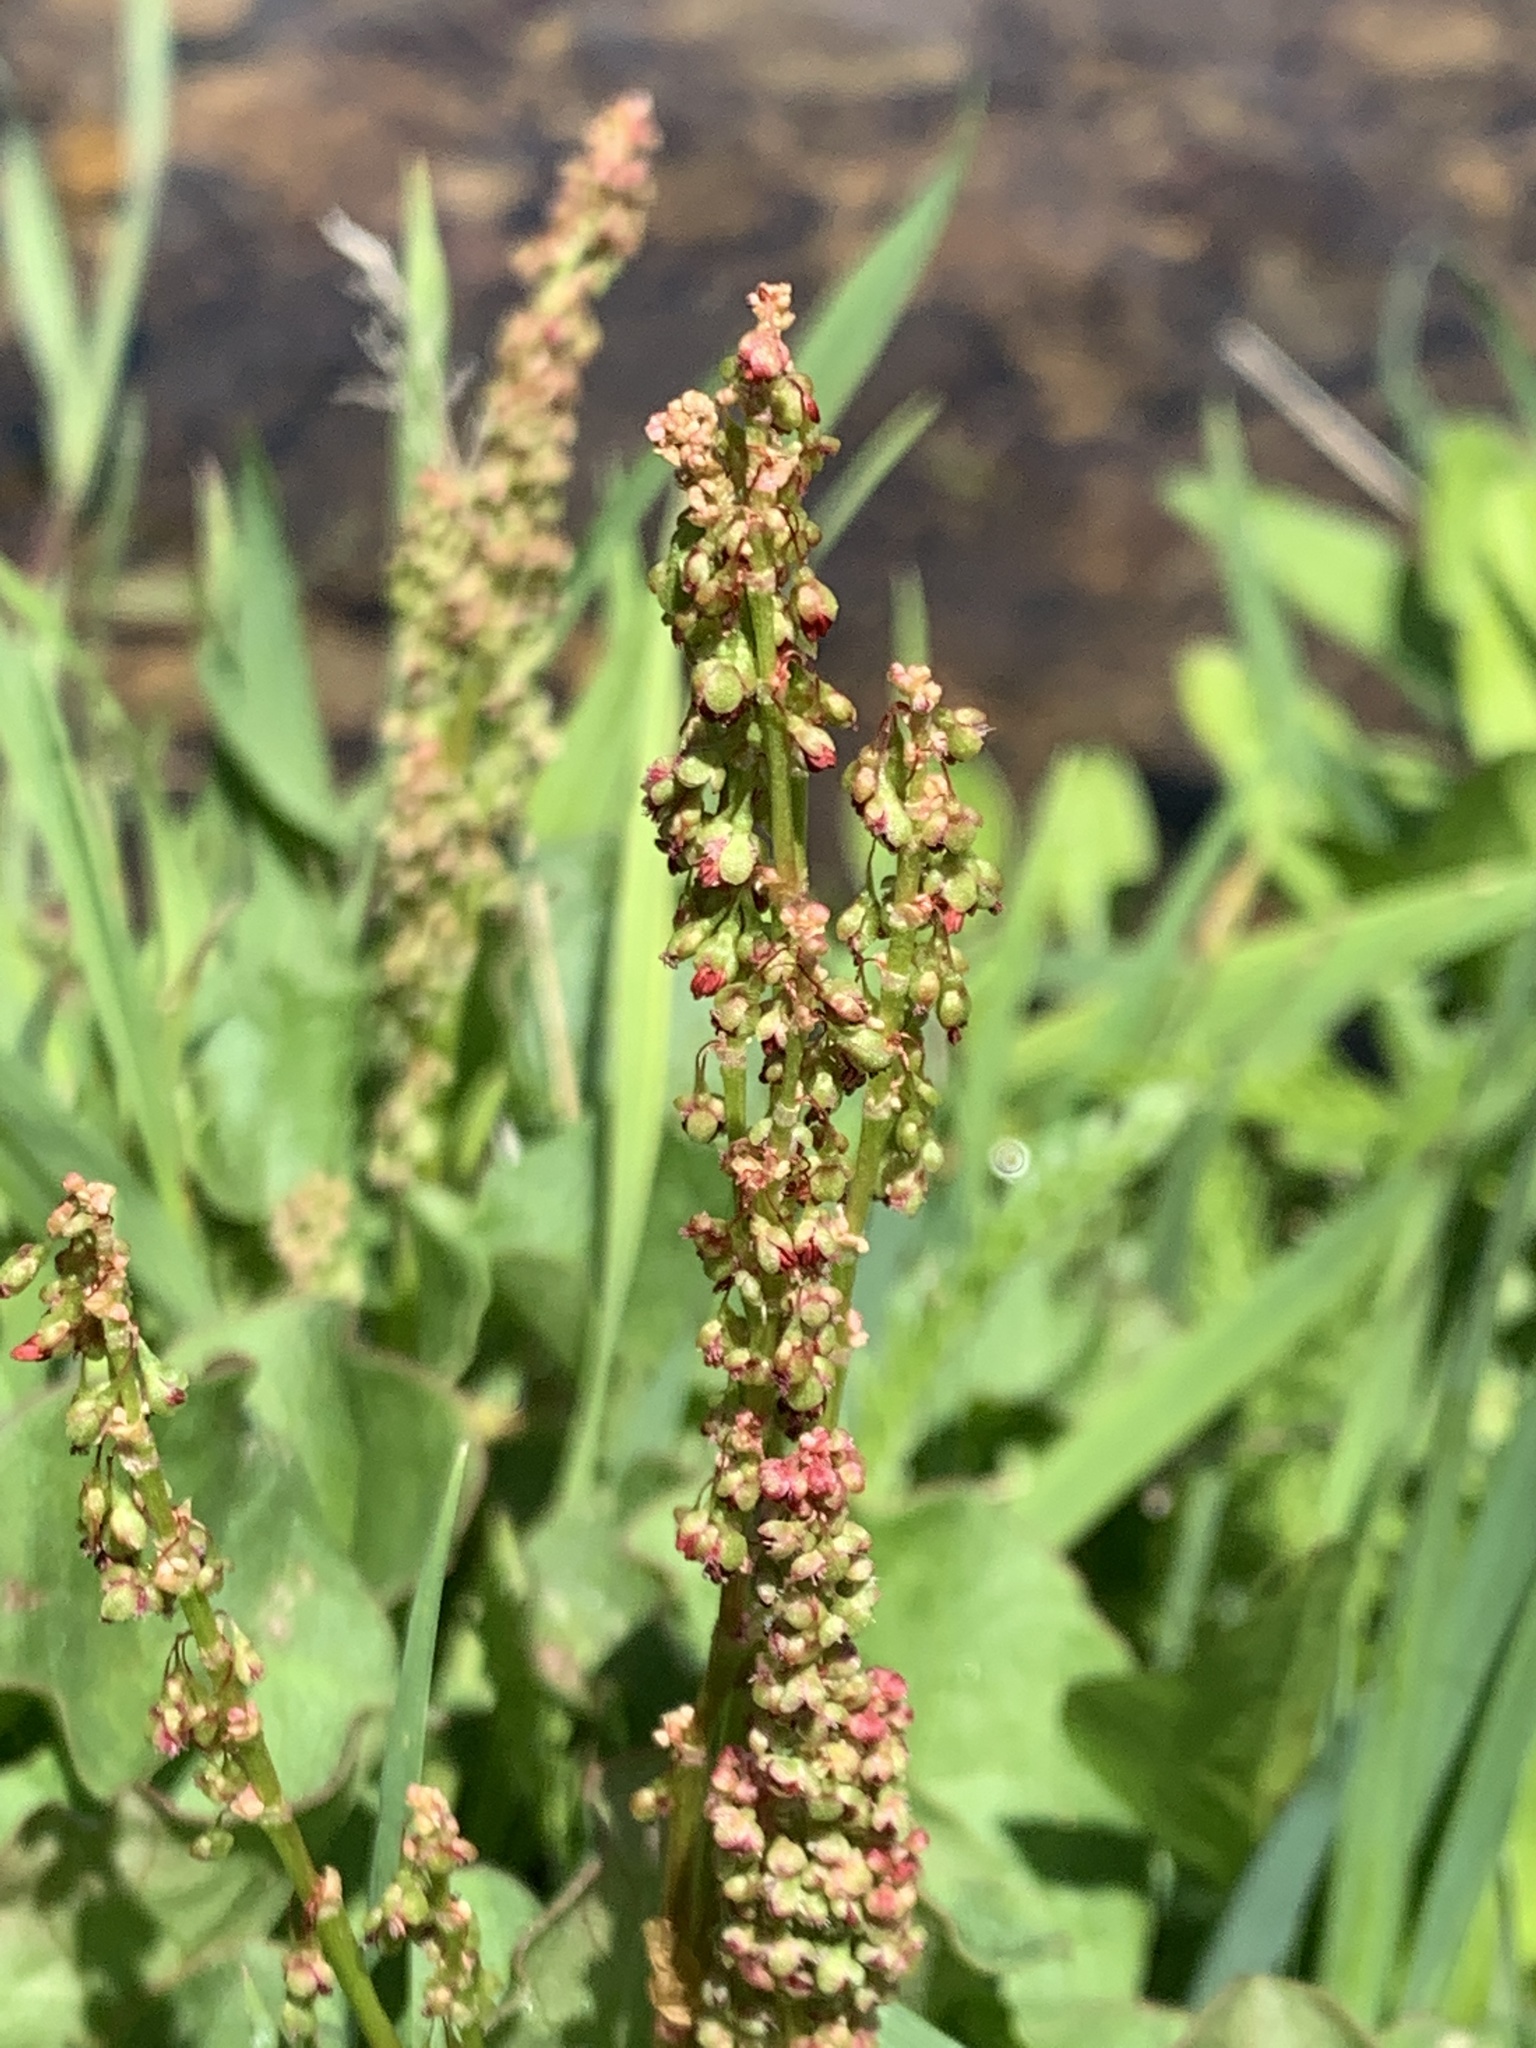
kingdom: Plantae
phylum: Tracheophyta
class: Magnoliopsida
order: Caryophyllales
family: Polygonaceae
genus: Oxyria
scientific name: Oxyria digyna
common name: Alpine mountain-sorrel
